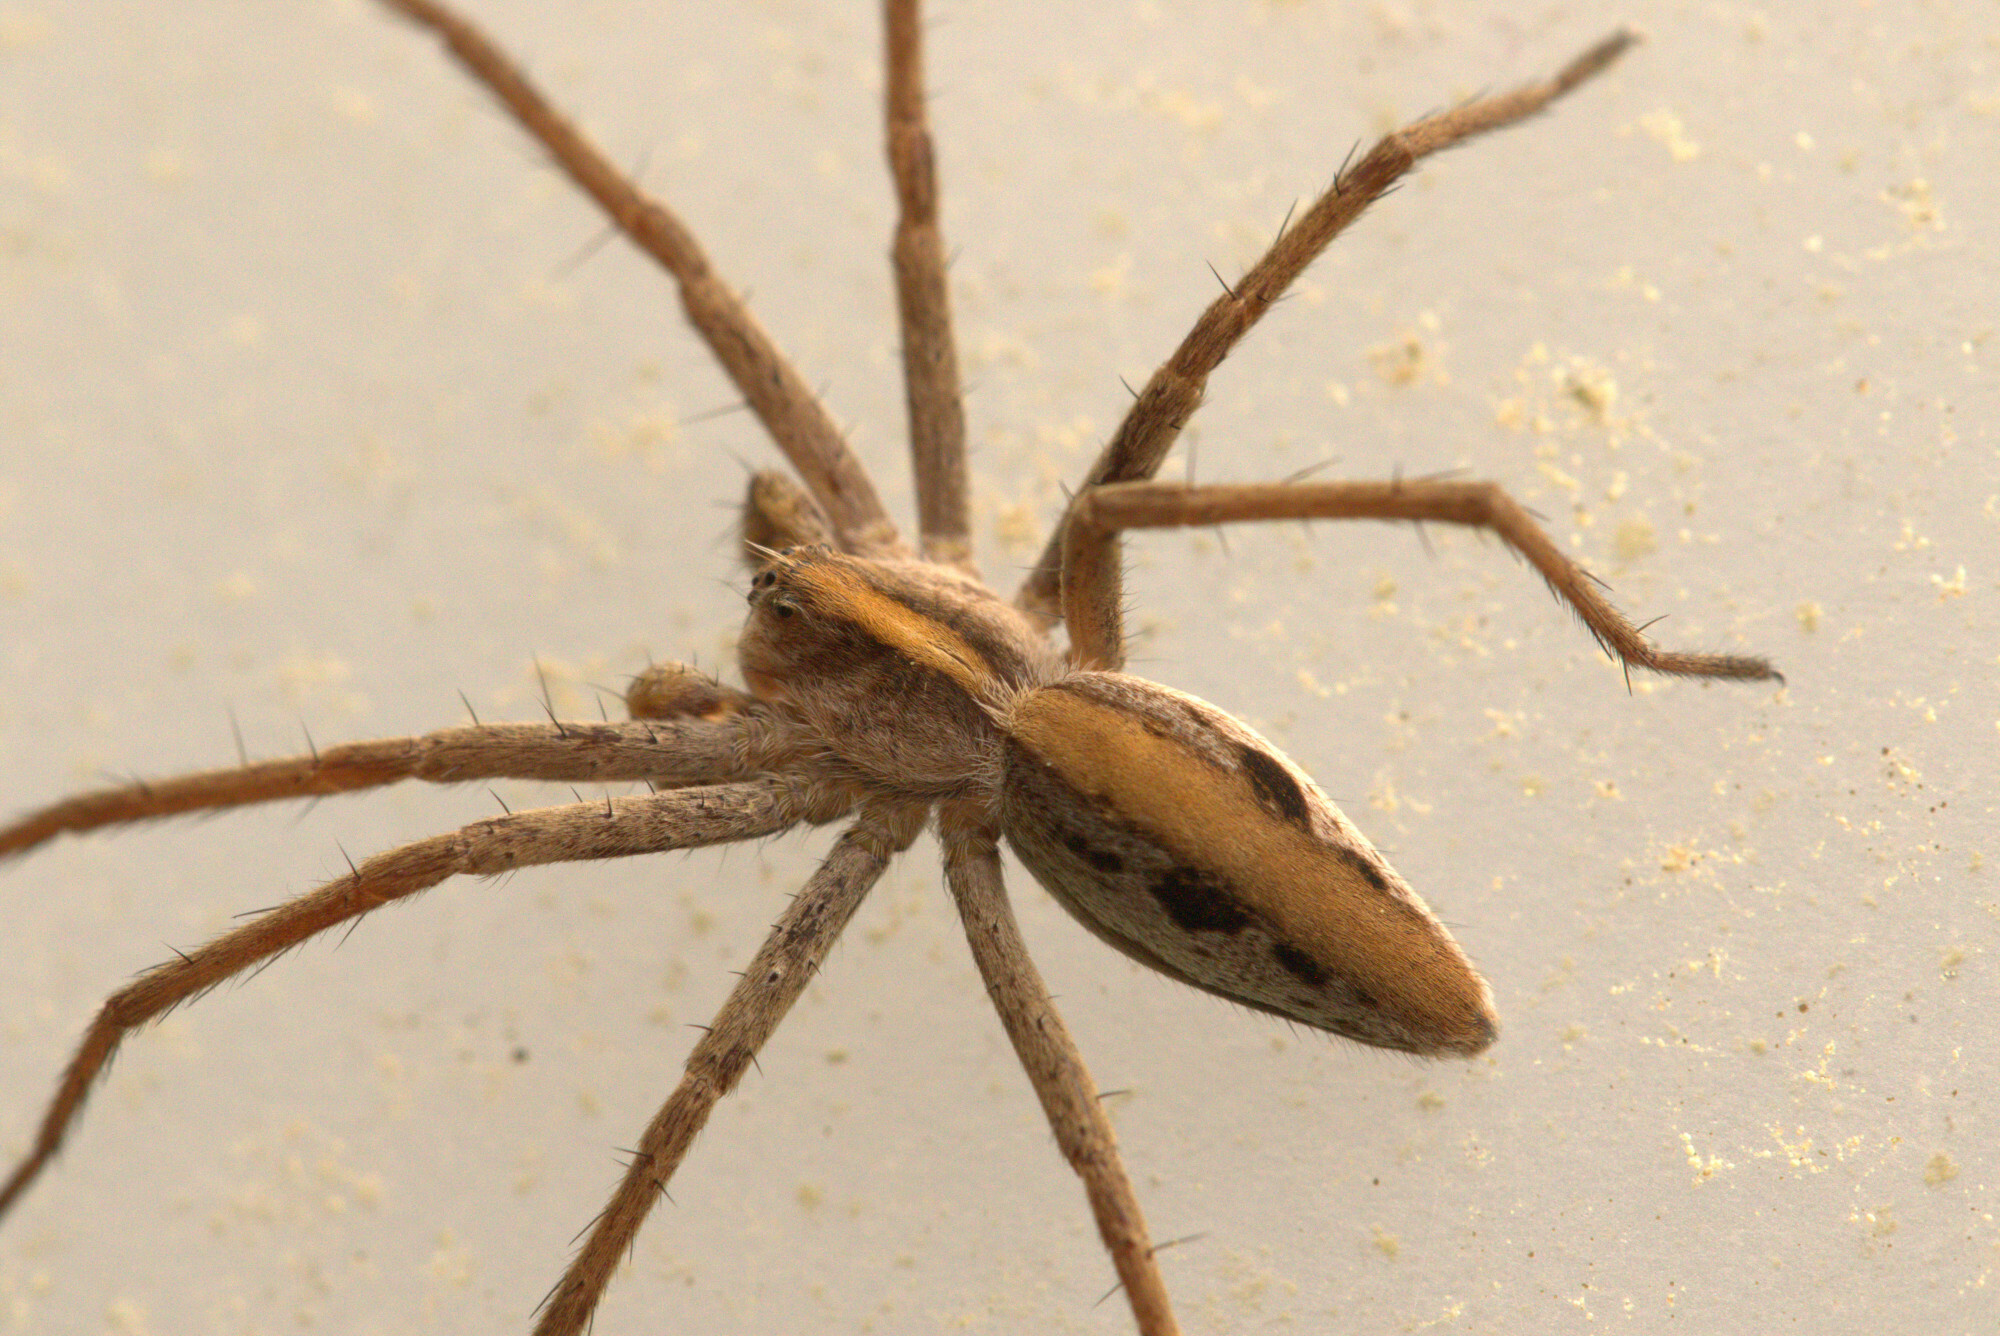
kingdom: Animalia
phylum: Arthropoda
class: Arachnida
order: Araneae
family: Pisauridae
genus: Pisaura
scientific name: Pisaura mirabilis
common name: Tent spider
